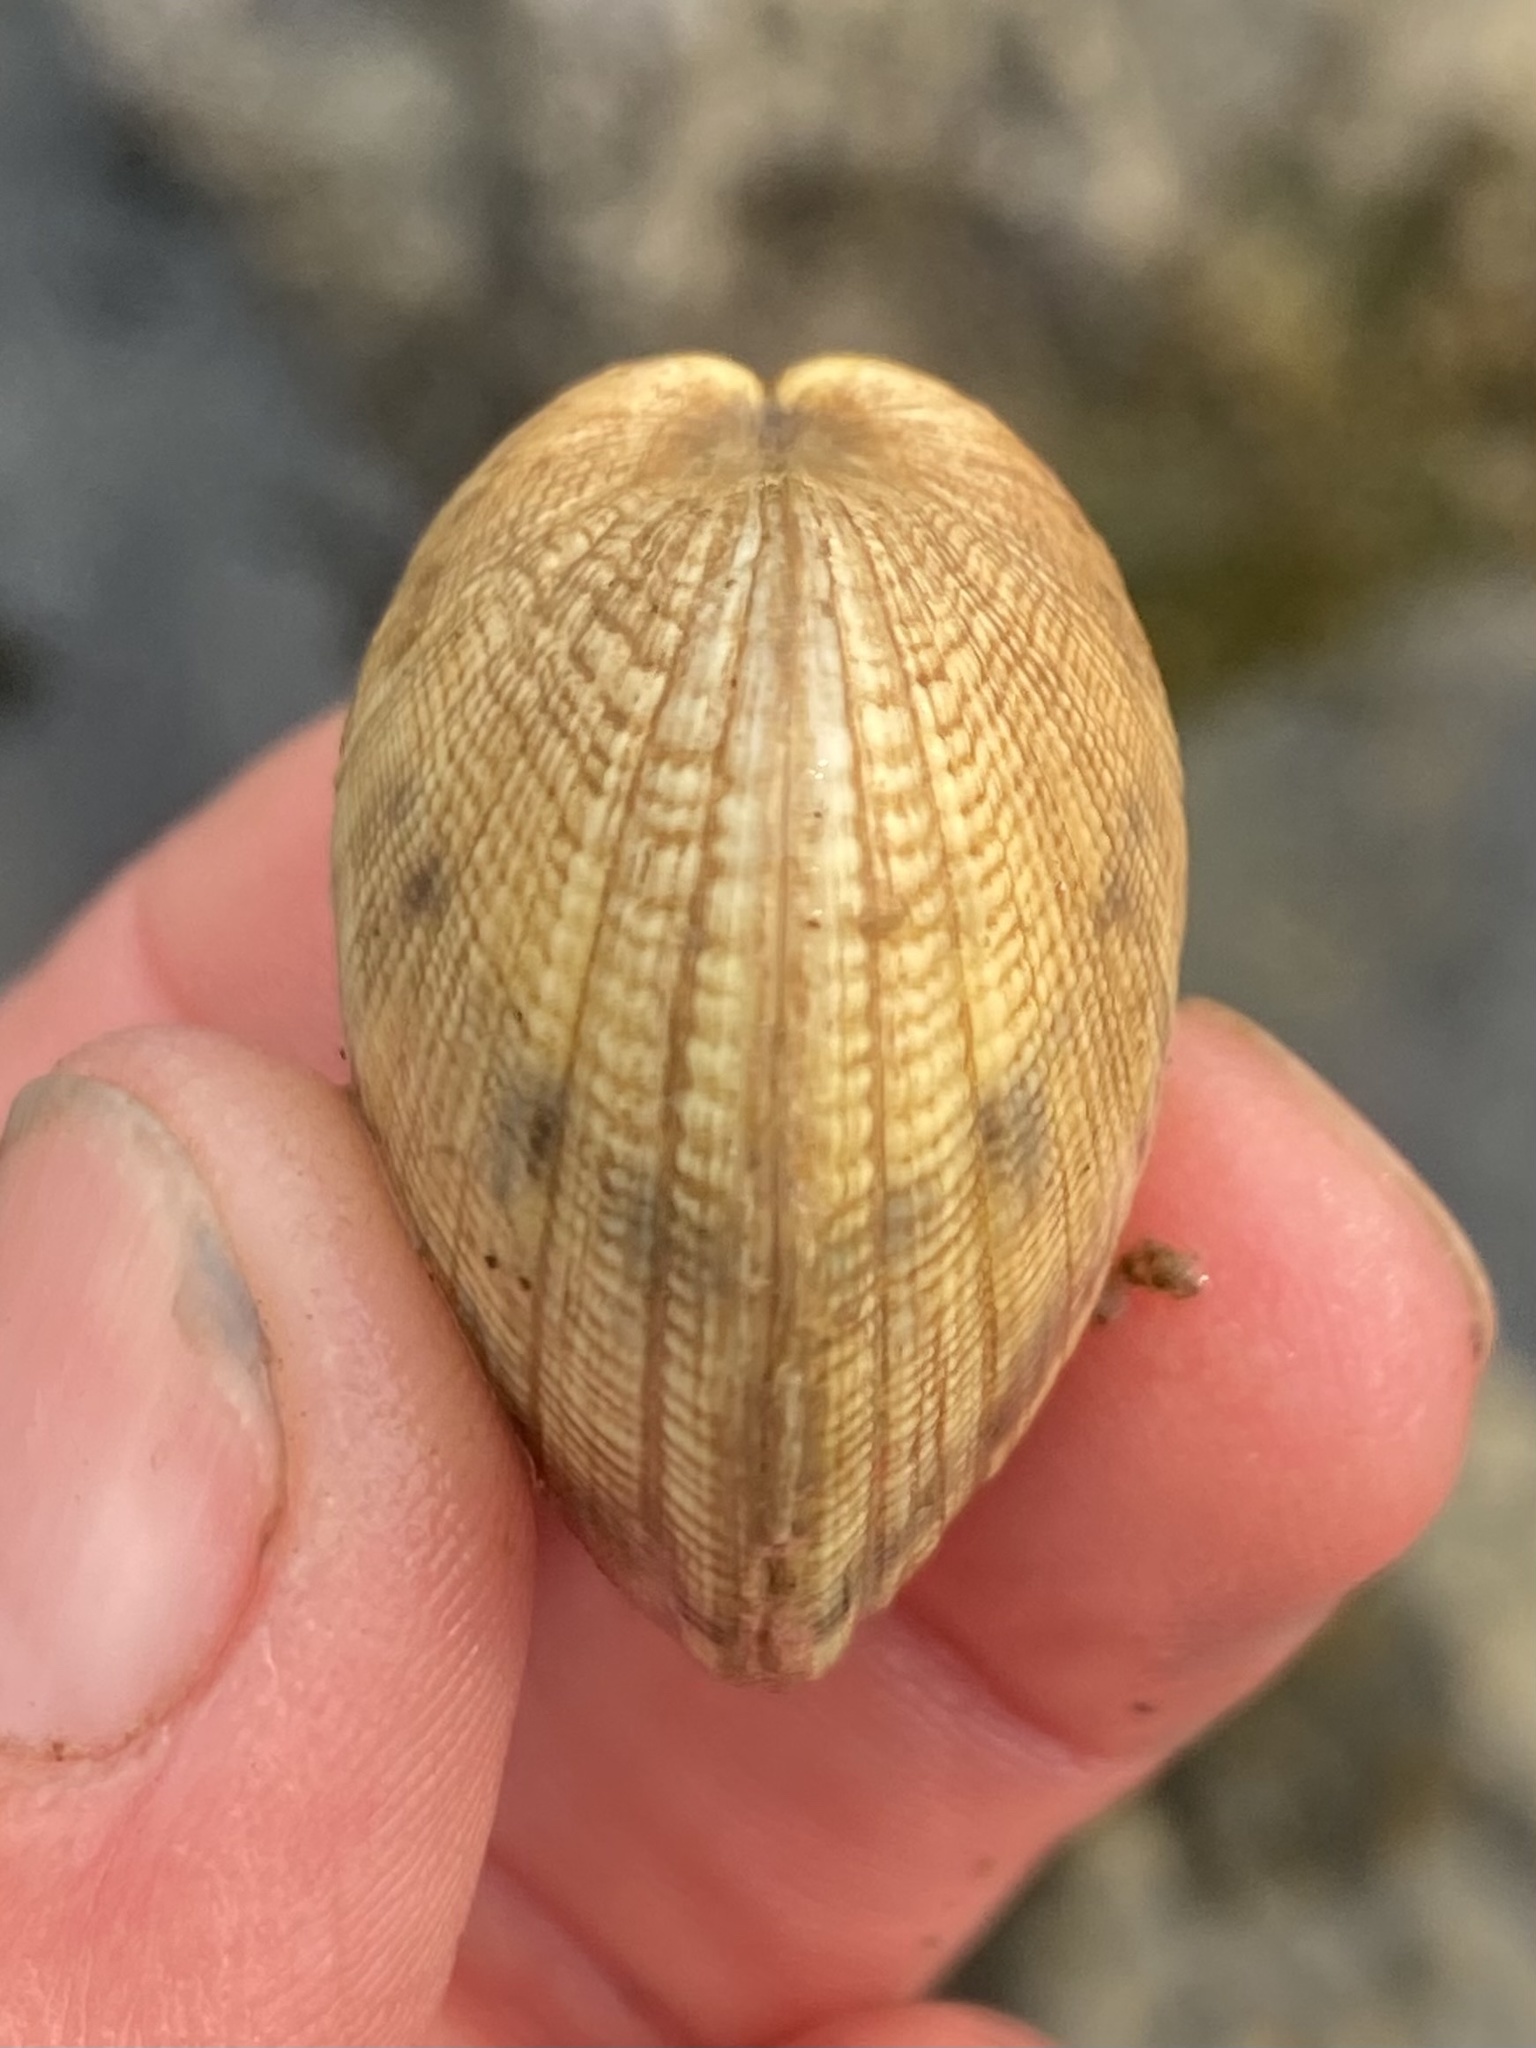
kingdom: Animalia
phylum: Mollusca
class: Bivalvia
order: Venerida
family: Veneridae
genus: Ruditapes
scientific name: Ruditapes philippinarum
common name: Manila clam
